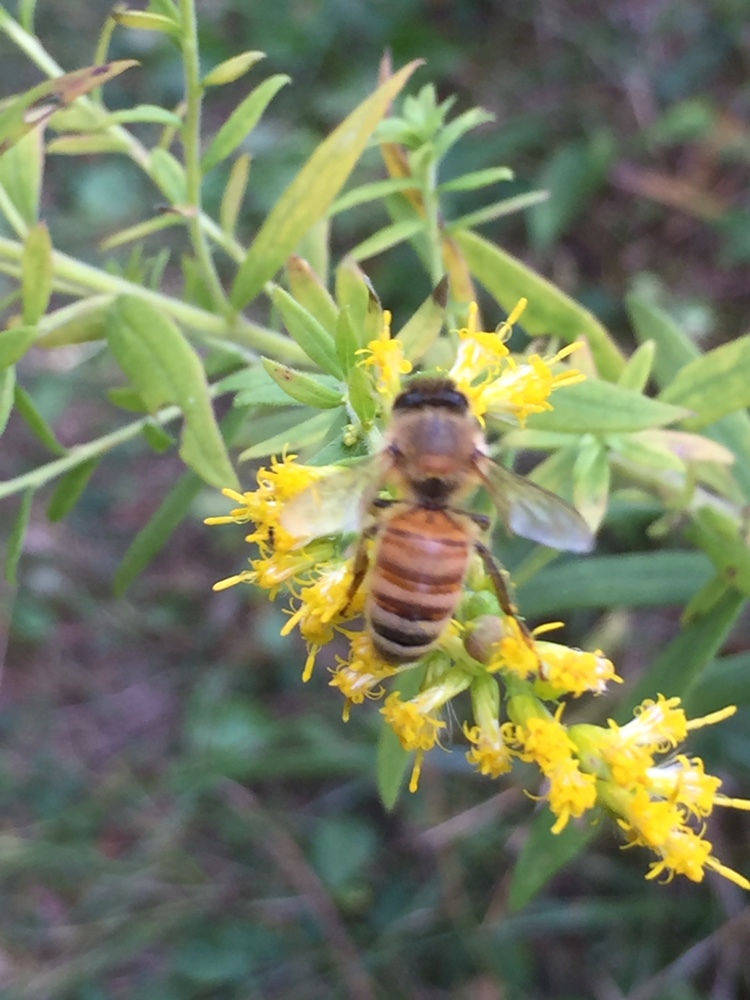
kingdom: Animalia
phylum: Arthropoda
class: Insecta
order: Hymenoptera
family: Apidae
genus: Apis
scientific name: Apis mellifera
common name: Honey bee
